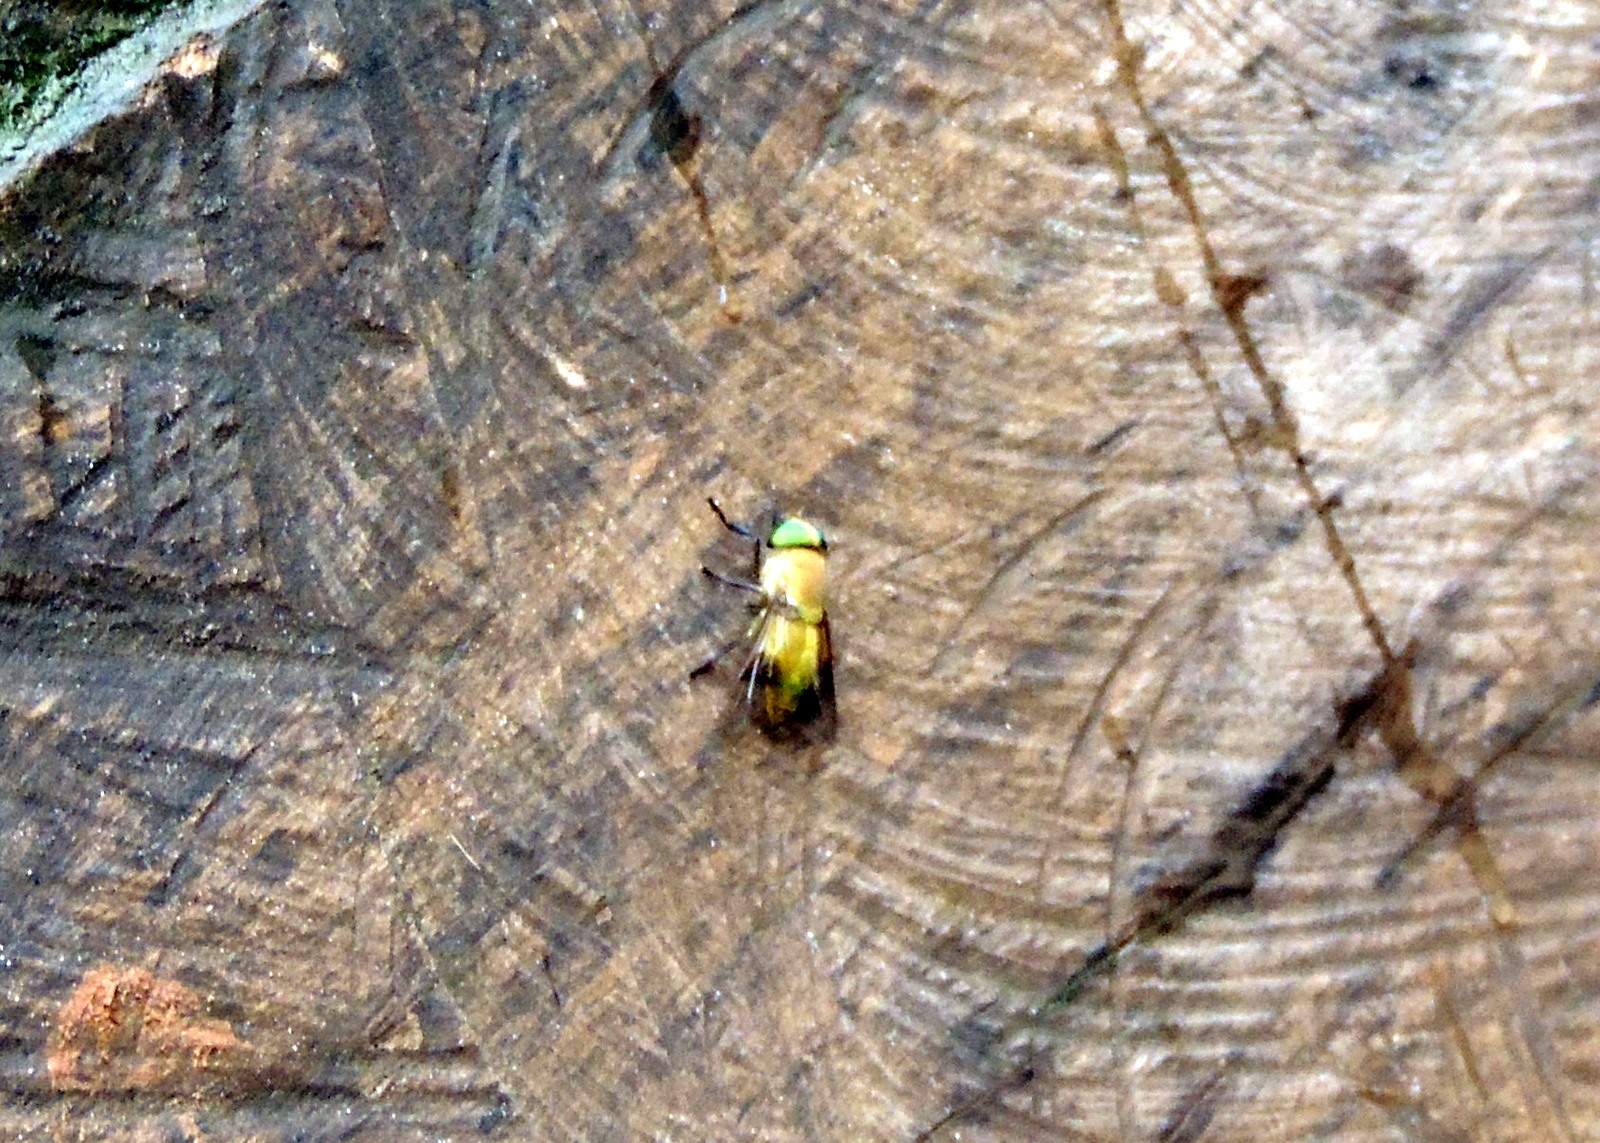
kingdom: Animalia
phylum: Arthropoda
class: Insecta
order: Diptera
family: Tabanidae
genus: Ancala
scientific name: Ancala fasciata
